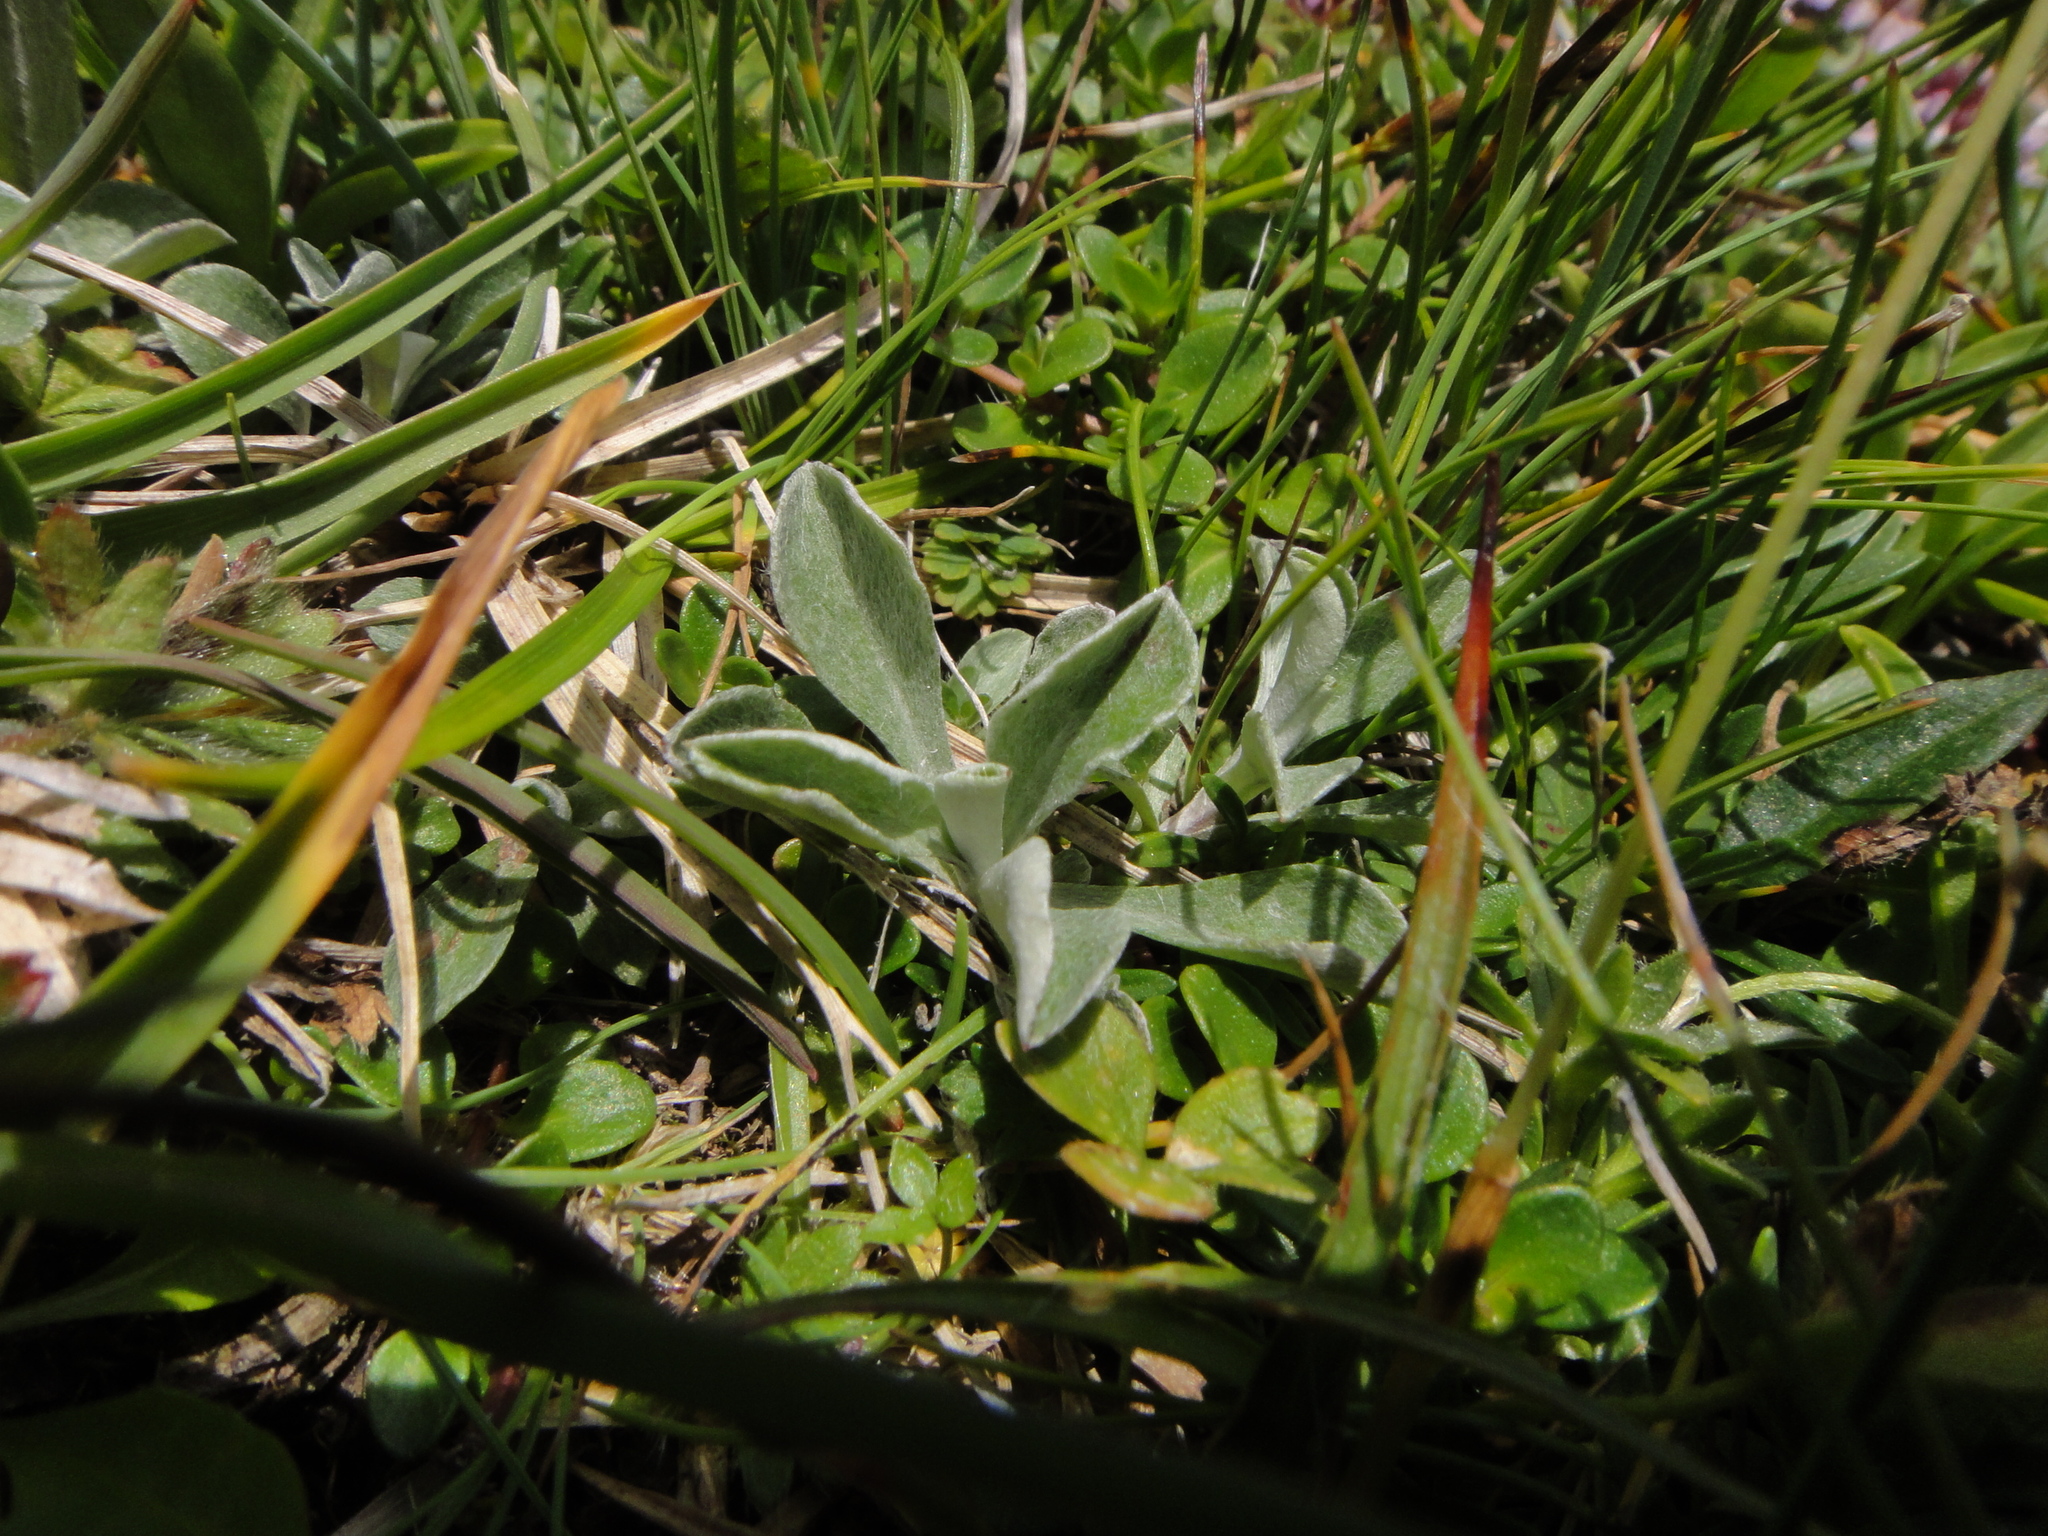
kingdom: Plantae
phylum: Tracheophyta
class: Magnoliopsida
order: Asterales
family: Asteraceae
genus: Antennaria
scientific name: Antennaria dioica
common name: Mountain everlasting
